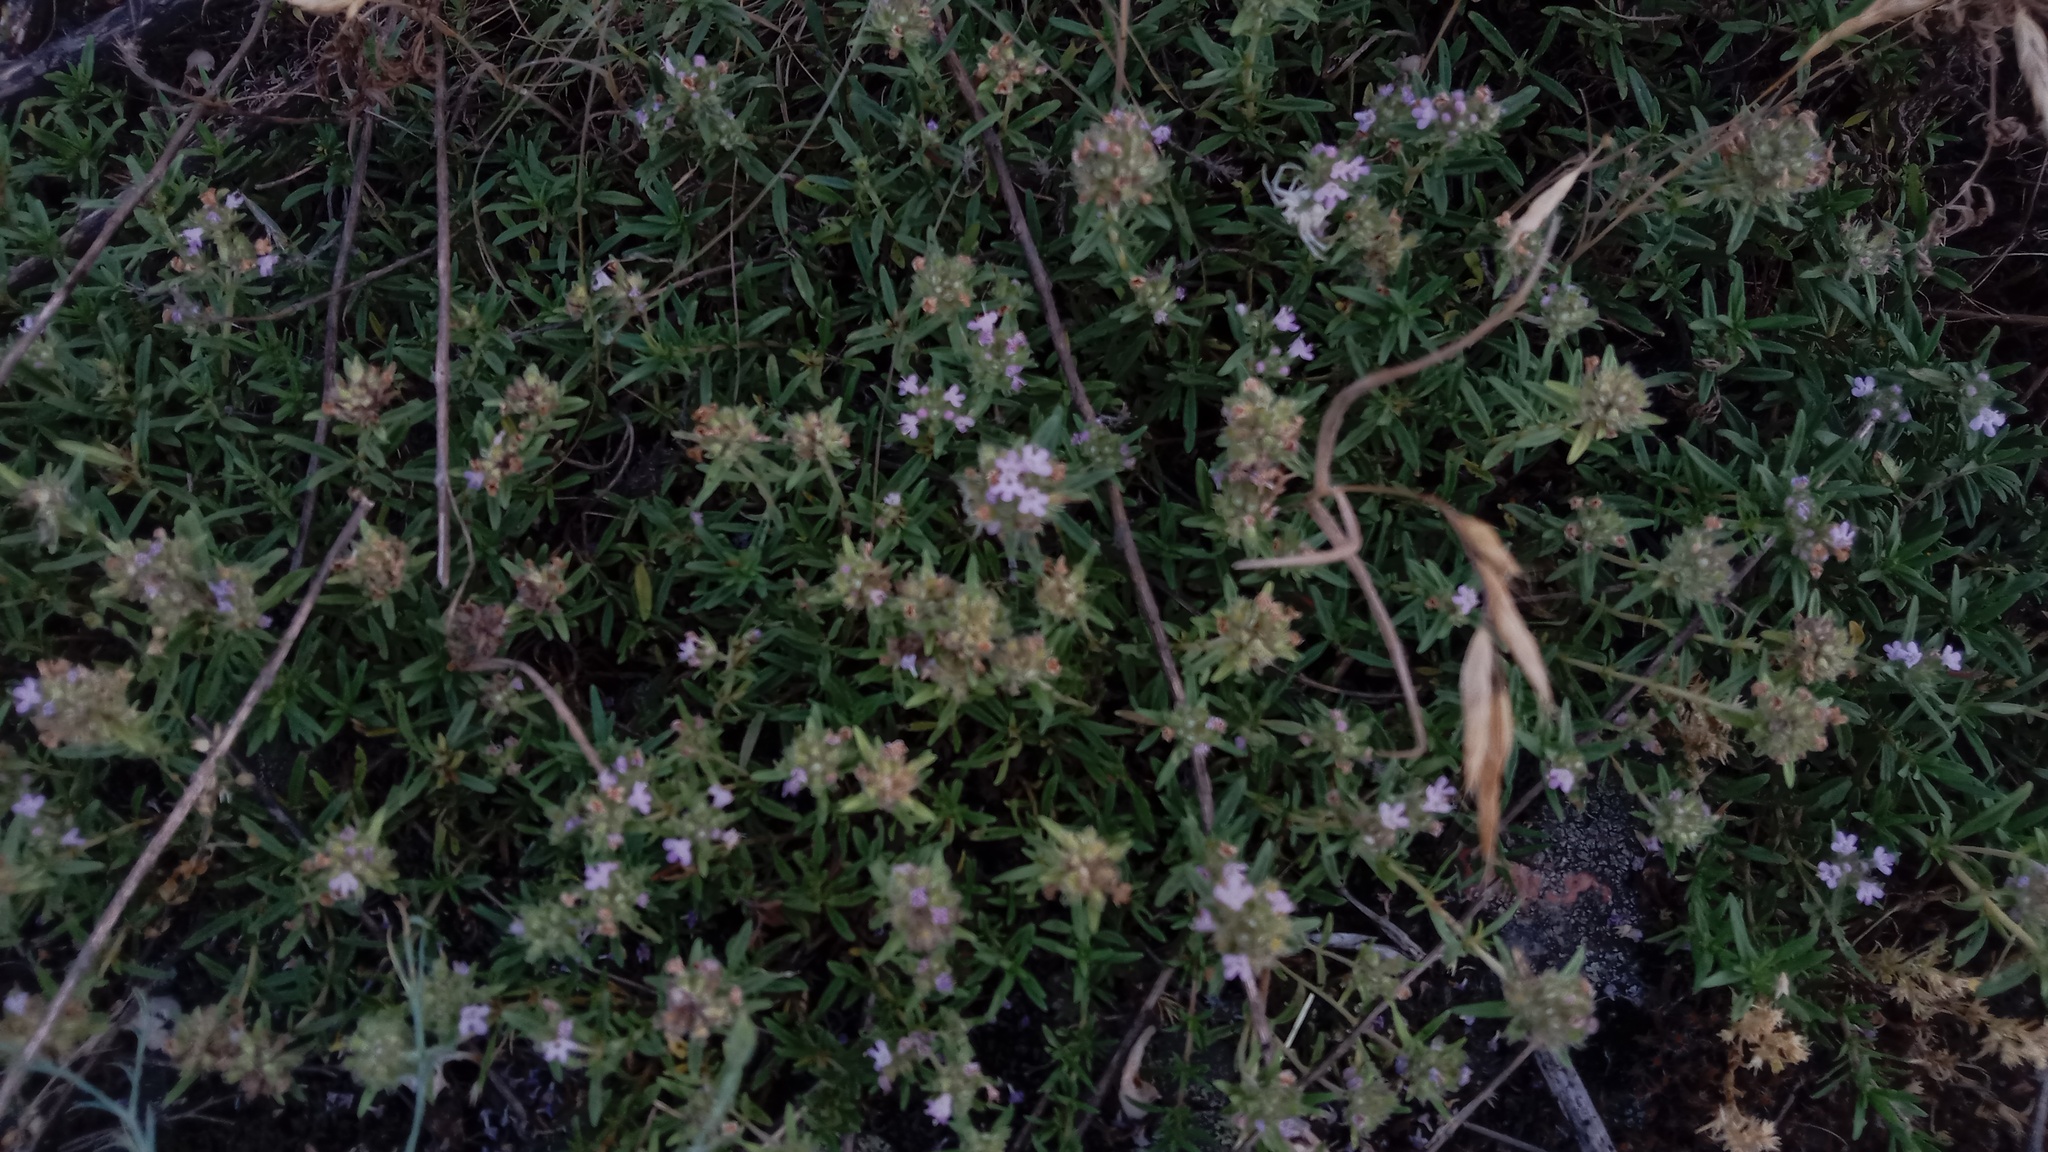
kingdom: Plantae
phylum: Tracheophyta
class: Magnoliopsida
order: Lamiales
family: Lamiaceae
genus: Thymus
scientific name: Thymus dimorphus
